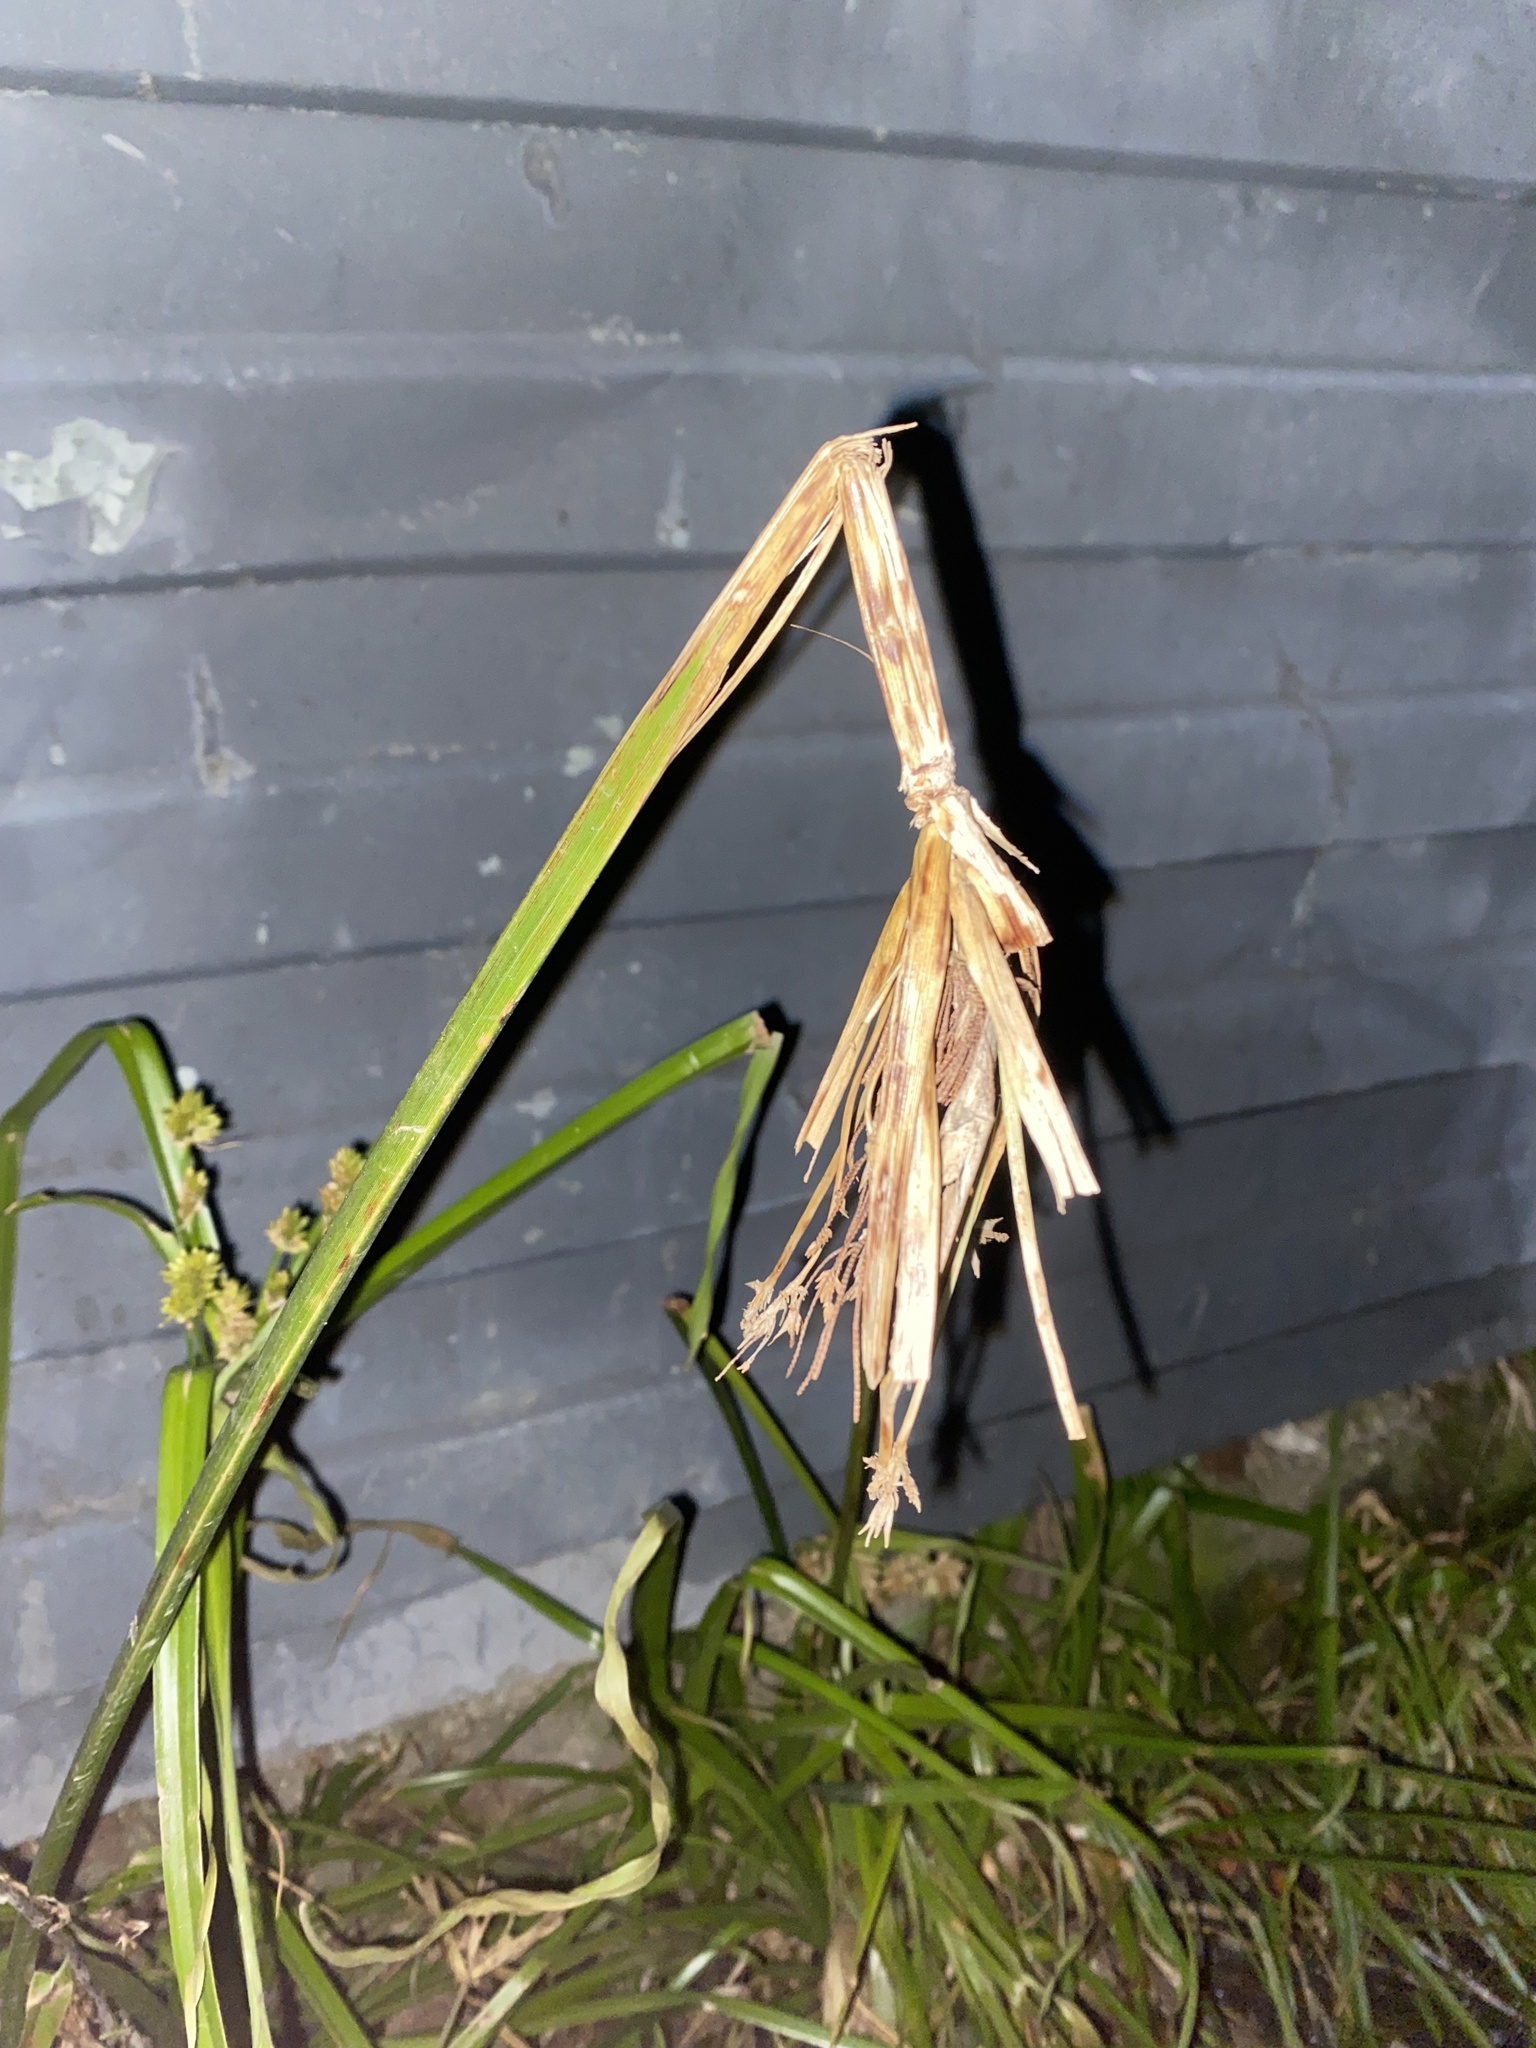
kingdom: Plantae
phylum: Tracheophyta
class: Liliopsida
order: Poales
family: Cyperaceae
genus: Cyperus
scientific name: Cyperus eragrostis
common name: Tall flatsedge
